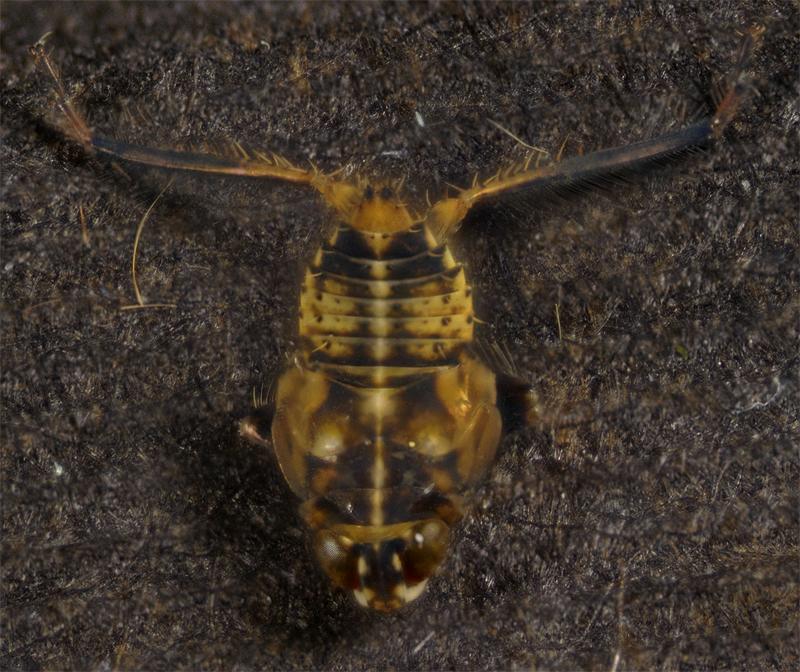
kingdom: Animalia
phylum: Arthropoda
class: Insecta
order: Hemiptera
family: Cicadellidae
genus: Jikradia
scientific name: Jikradia olitoria
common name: Coppery leafhopper
